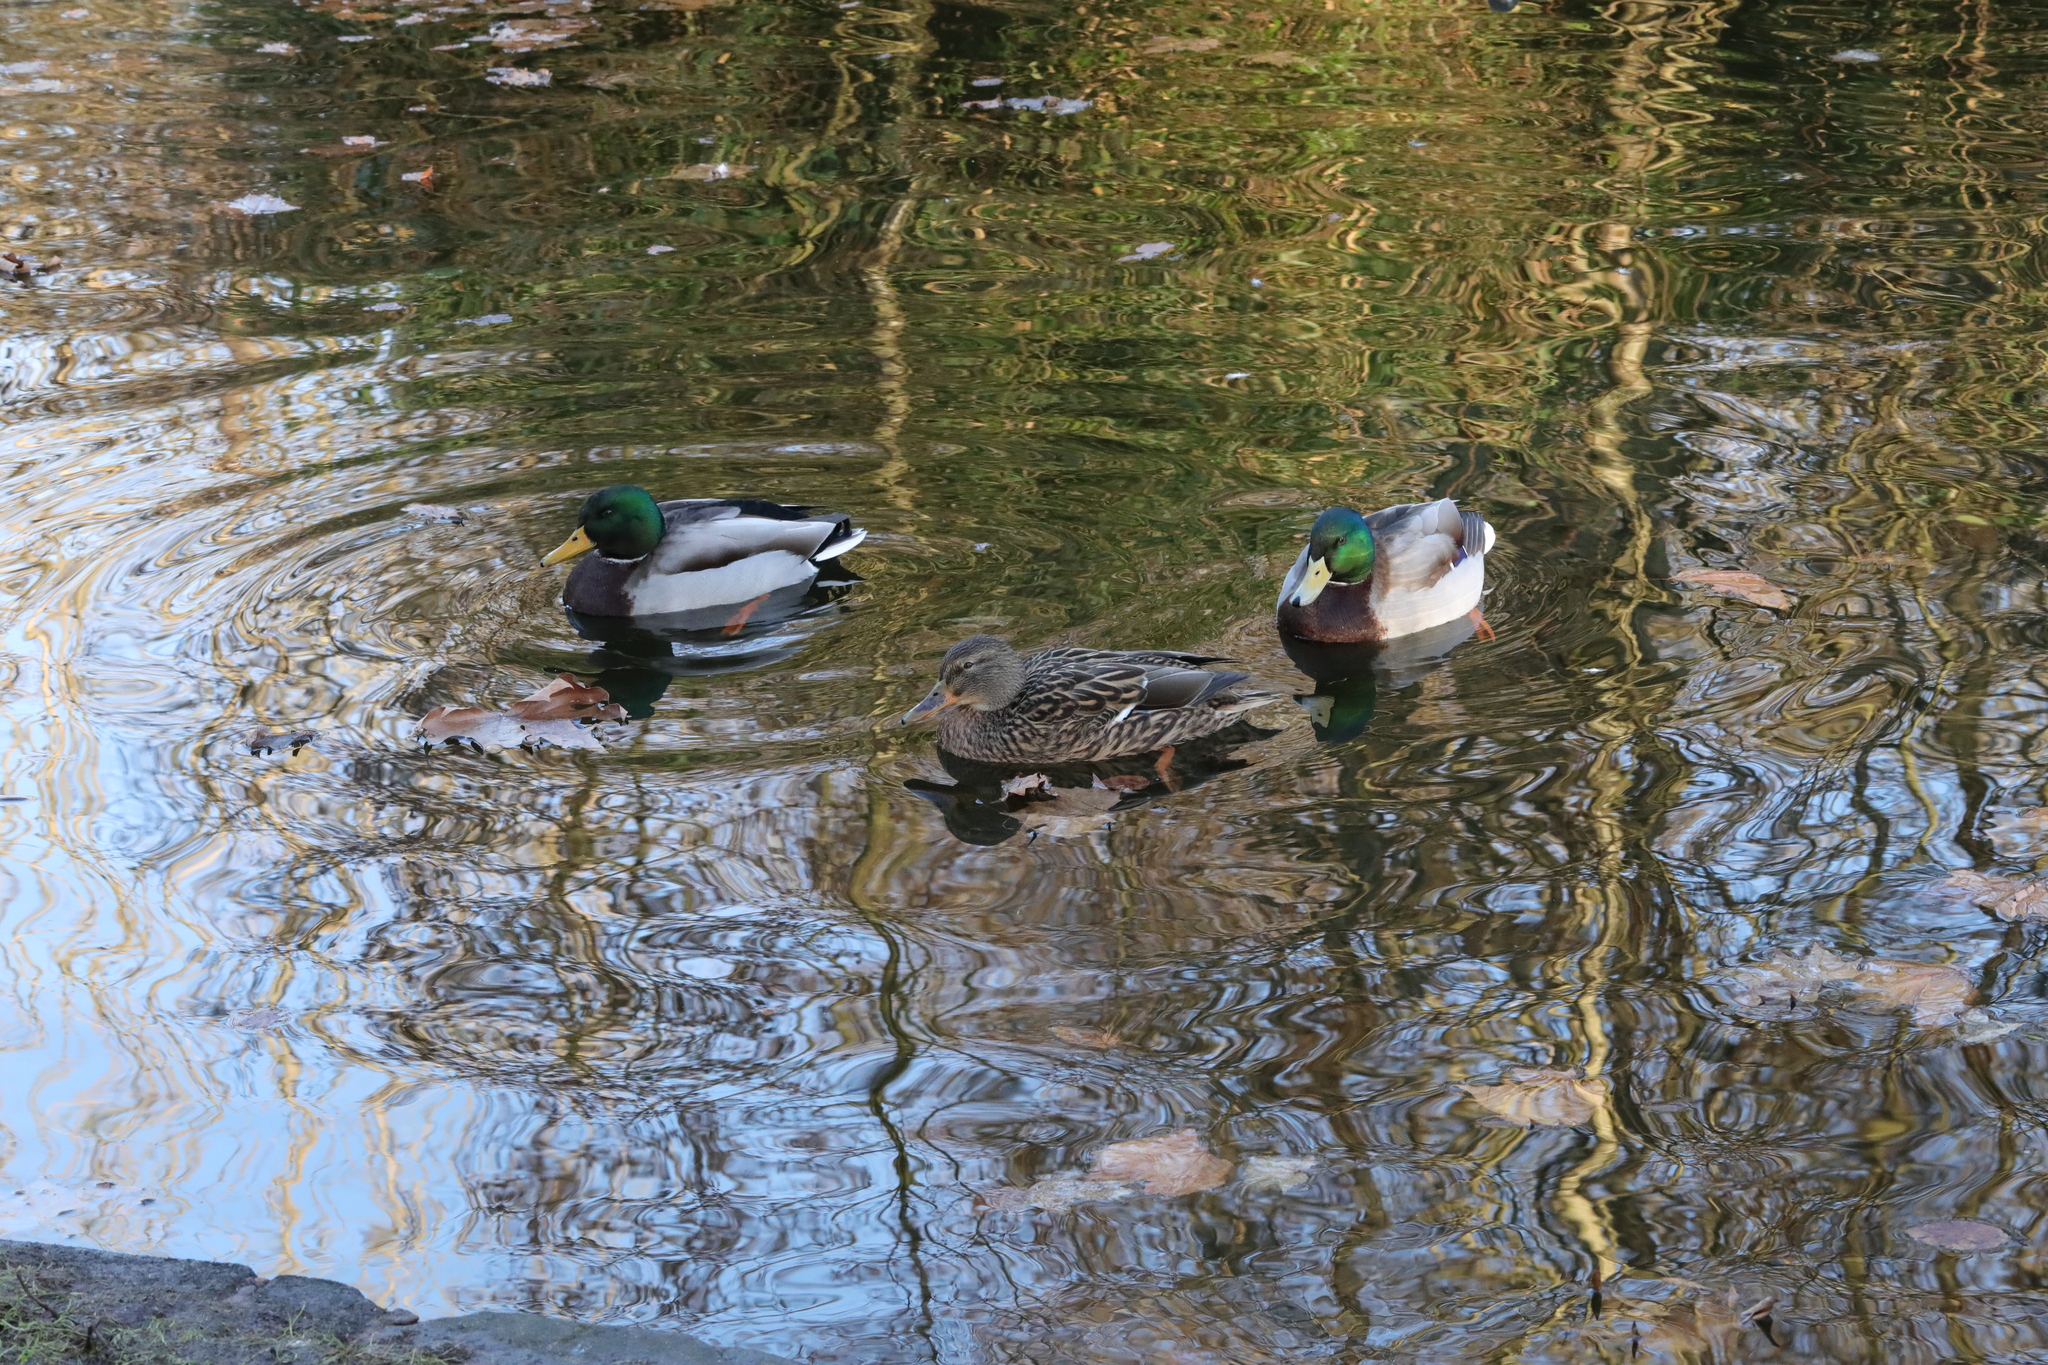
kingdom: Animalia
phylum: Chordata
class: Aves
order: Anseriformes
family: Anatidae
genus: Anas
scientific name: Anas platyrhynchos
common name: Mallard
